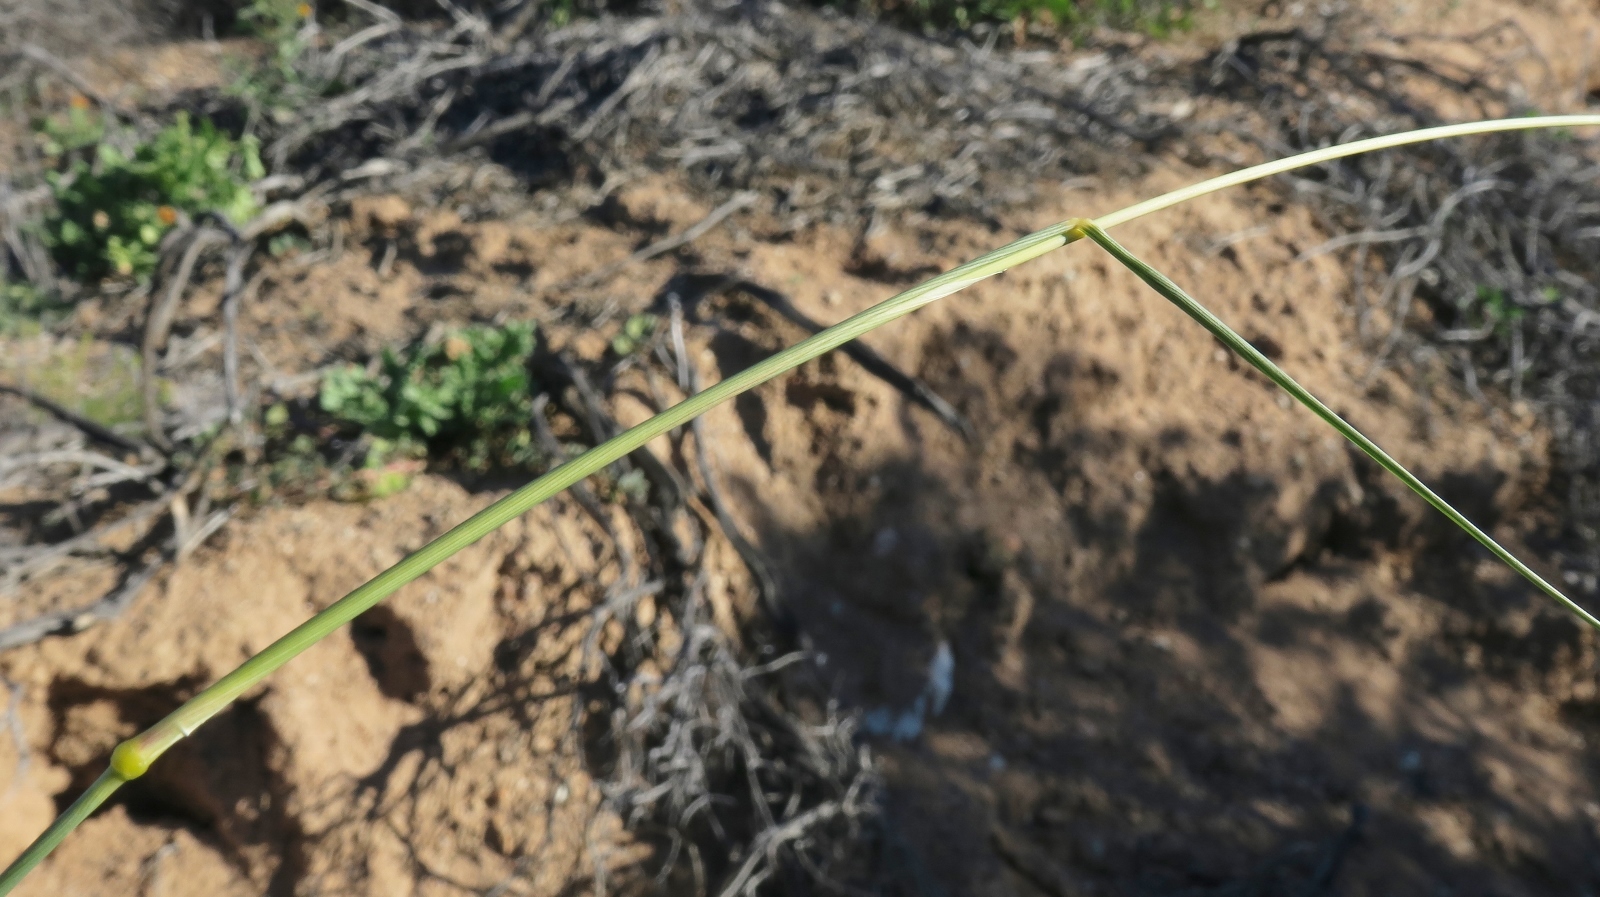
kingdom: Plantae
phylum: Tracheophyta
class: Liliopsida
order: Poales
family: Poaceae
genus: Fingerhuthia
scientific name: Fingerhuthia africana
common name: Zulu fescue
